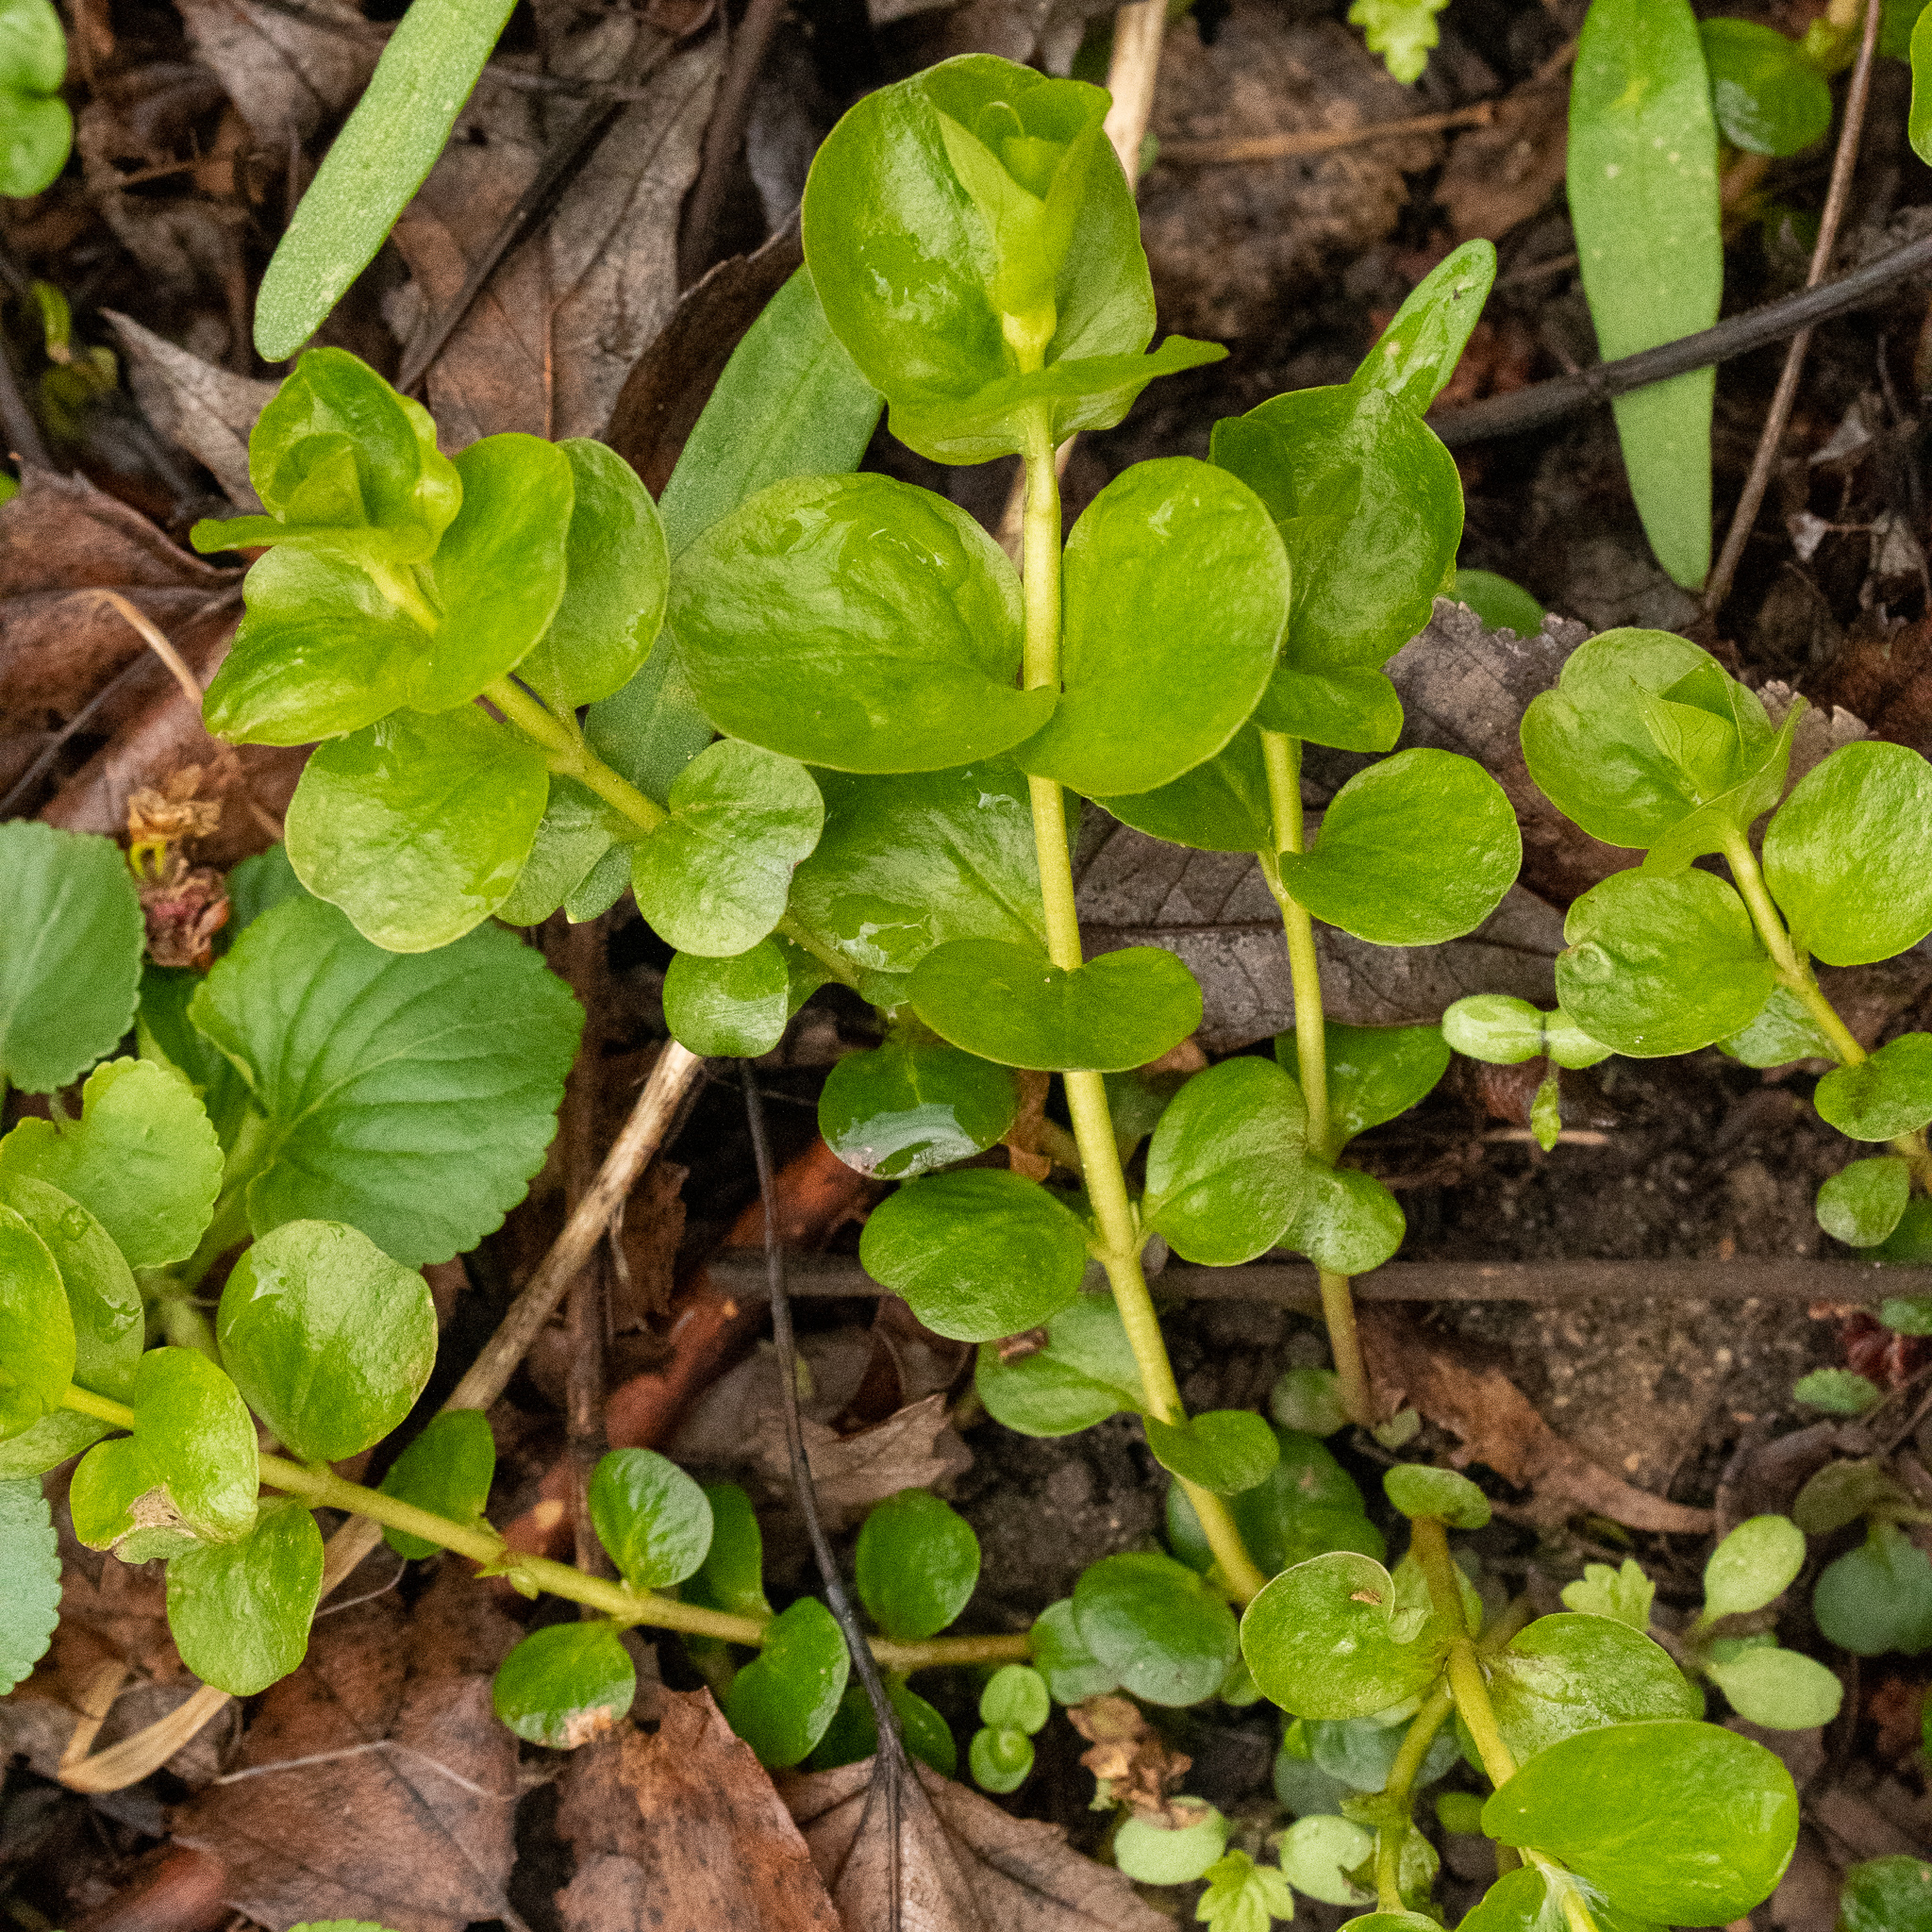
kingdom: Plantae
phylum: Tracheophyta
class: Magnoliopsida
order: Ericales
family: Primulaceae
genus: Lysimachia
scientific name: Lysimachia nummularia
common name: Moneywort
